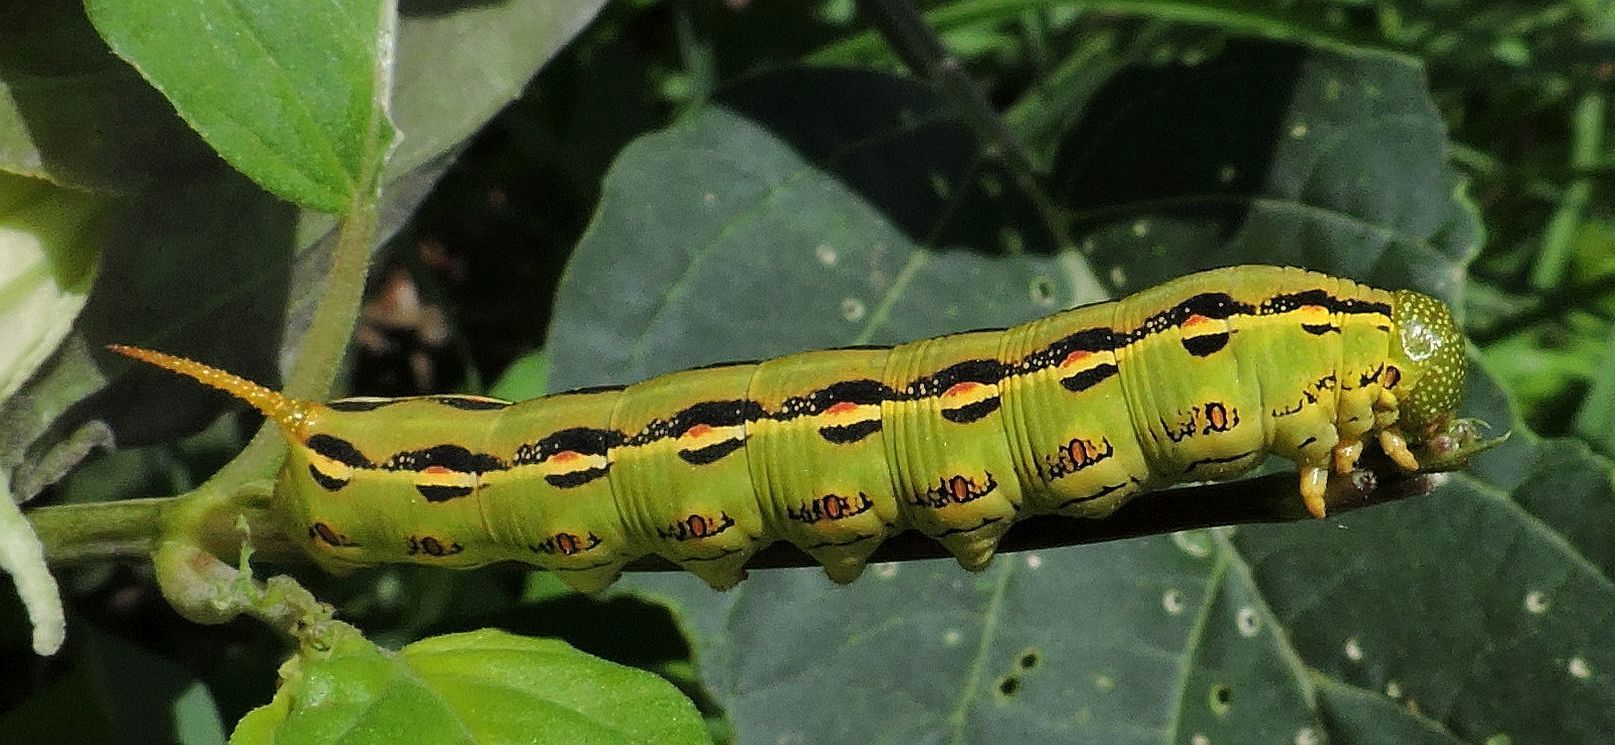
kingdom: Animalia
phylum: Arthropoda
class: Insecta
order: Lepidoptera
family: Sphingidae
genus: Hyles
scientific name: Hyles lineata
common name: White-lined sphinx
